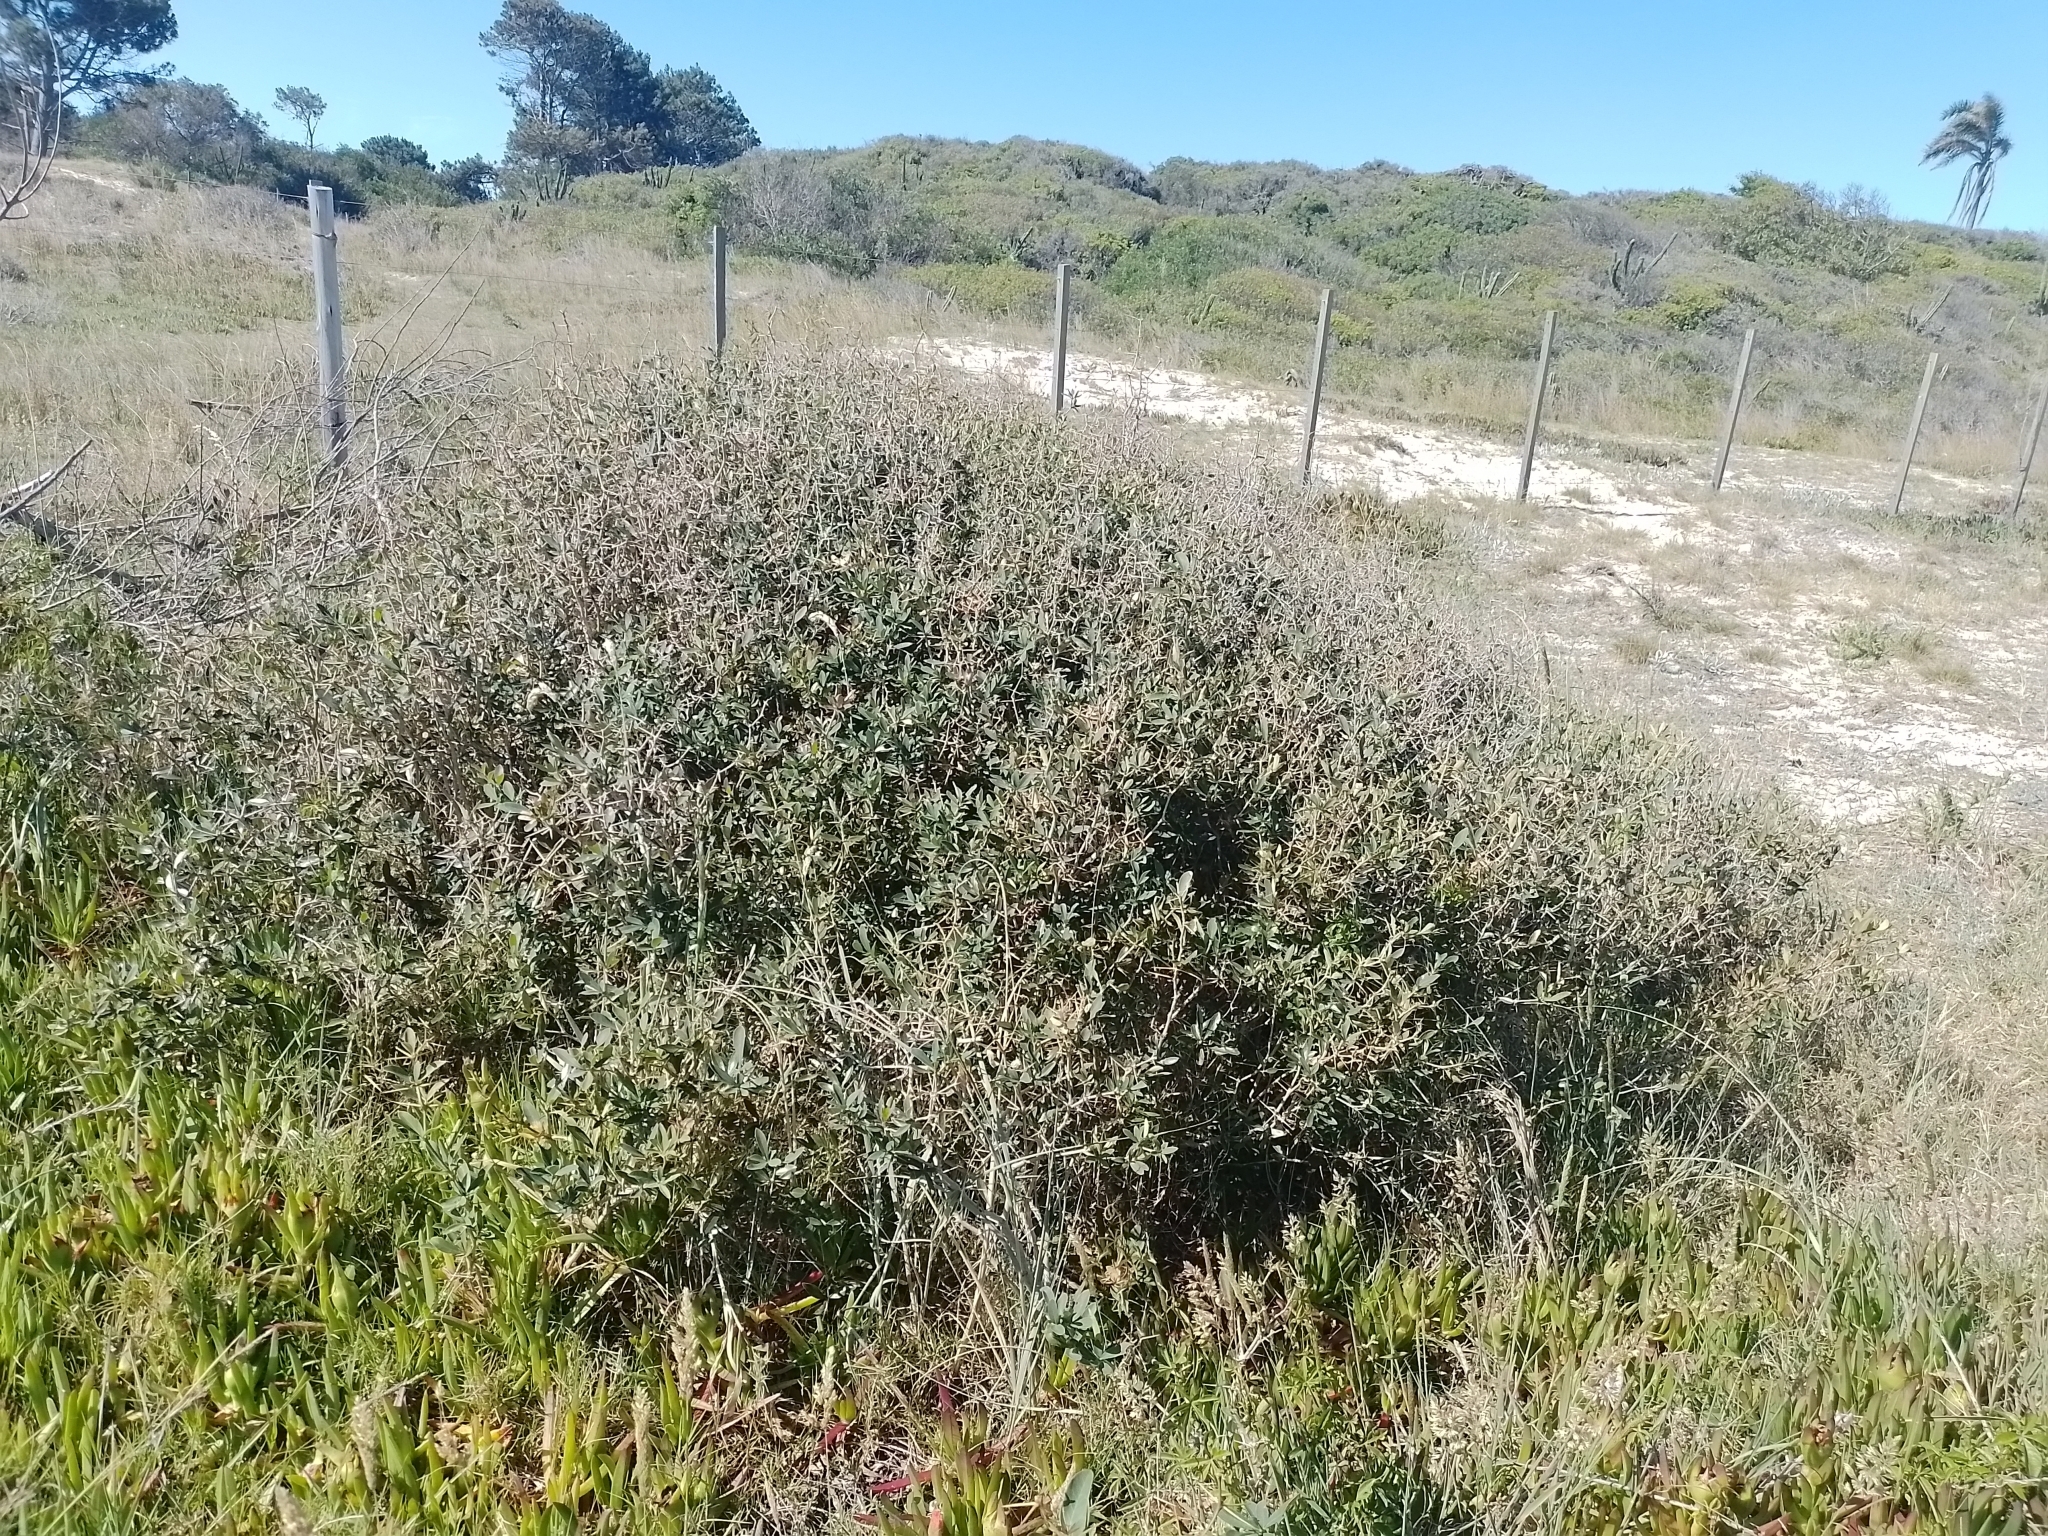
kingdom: Plantae
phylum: Tracheophyta
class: Magnoliopsida
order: Ranunculales
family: Berberidaceae
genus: Berberis
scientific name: Berberis laurina
